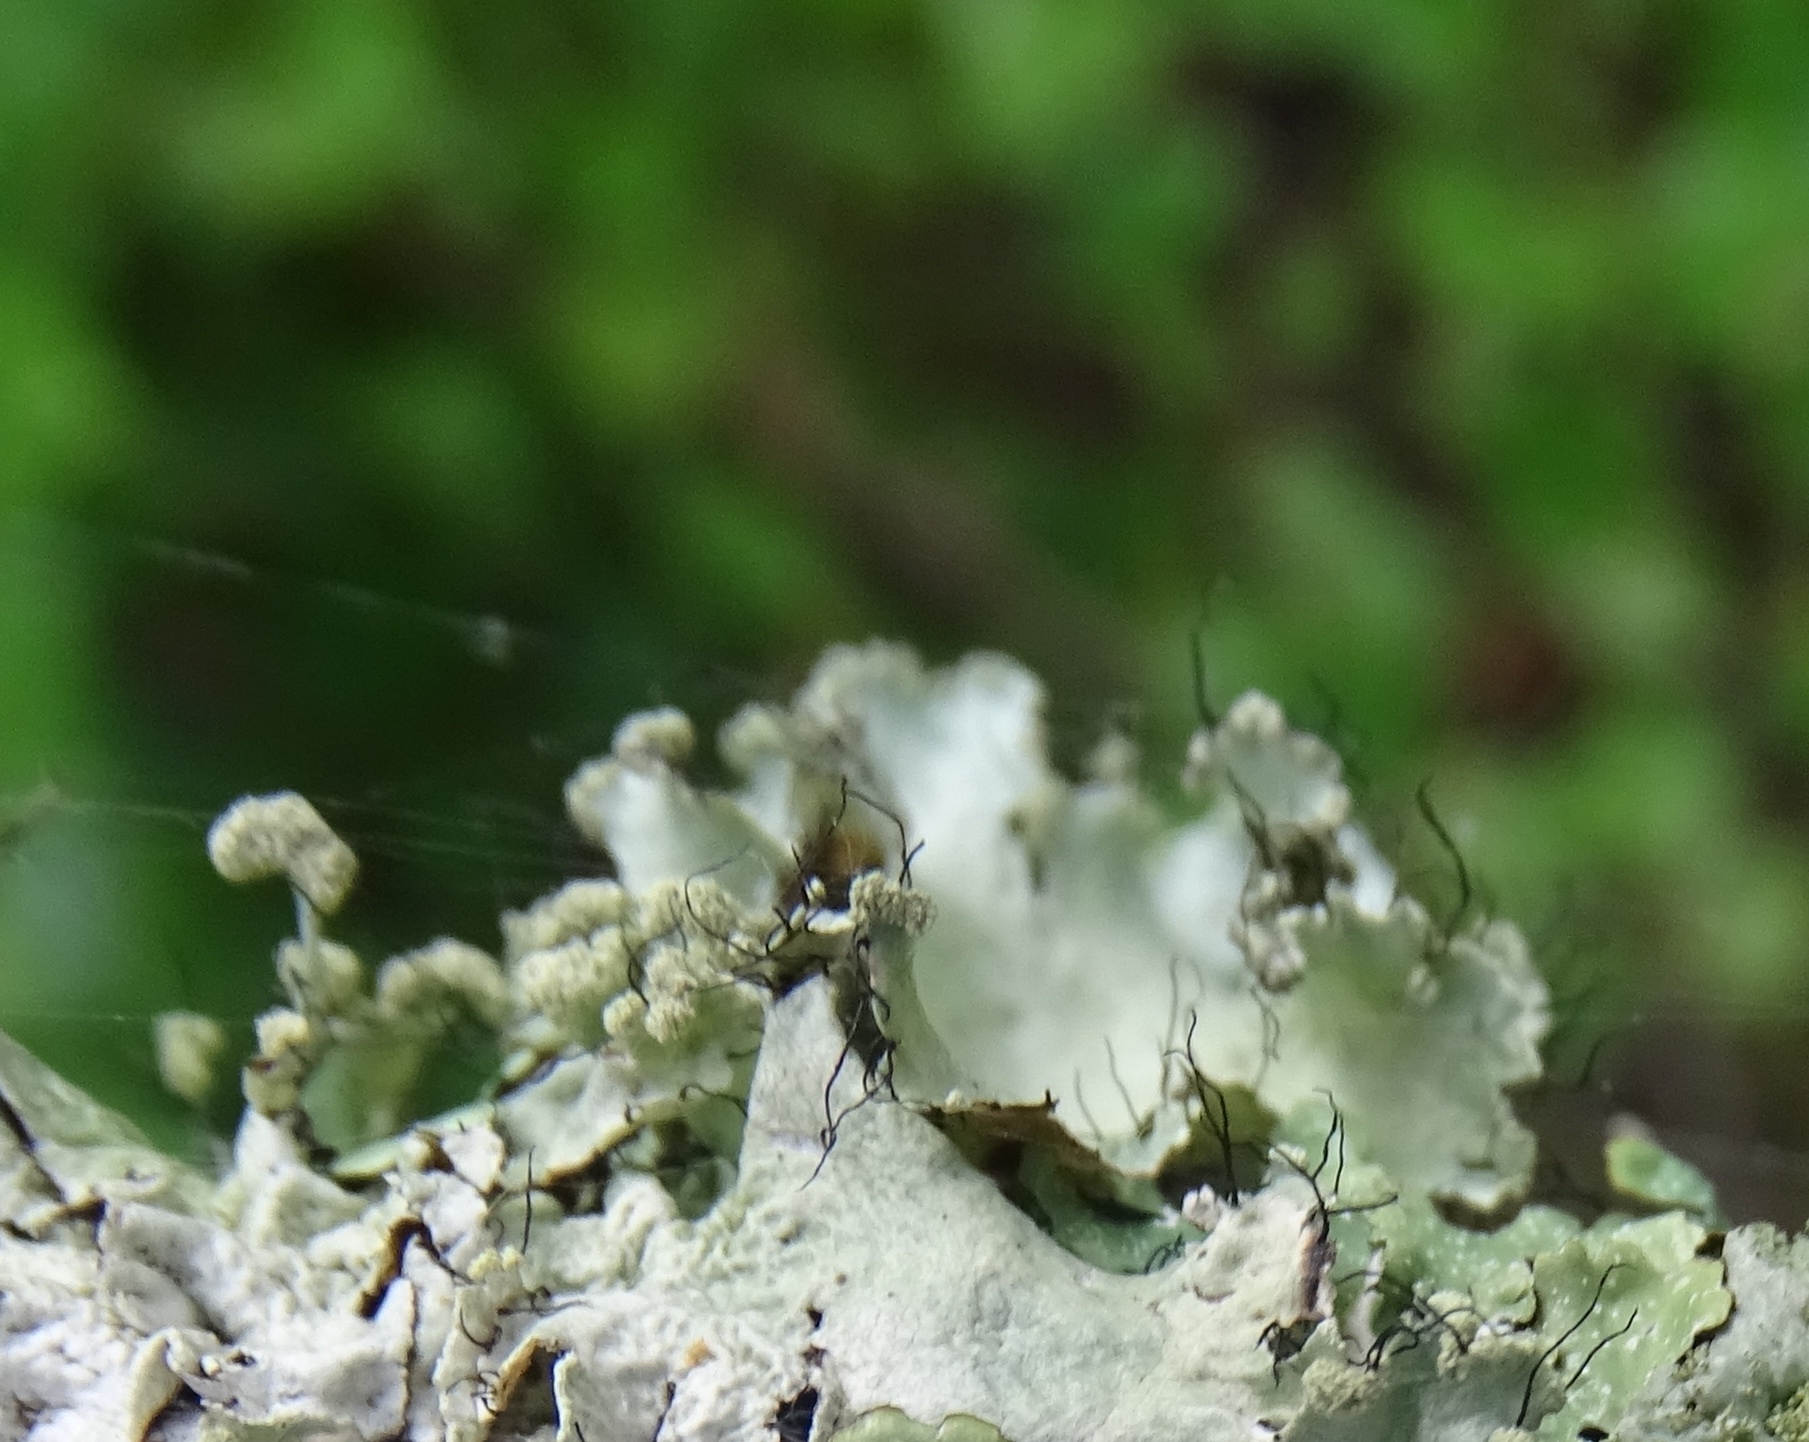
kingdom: Fungi
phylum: Ascomycota
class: Lecanoromycetes
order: Lecanorales
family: Parmeliaceae
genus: Parmotrema
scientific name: Parmotrema hypotropum
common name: Powdered ruffle lichen
